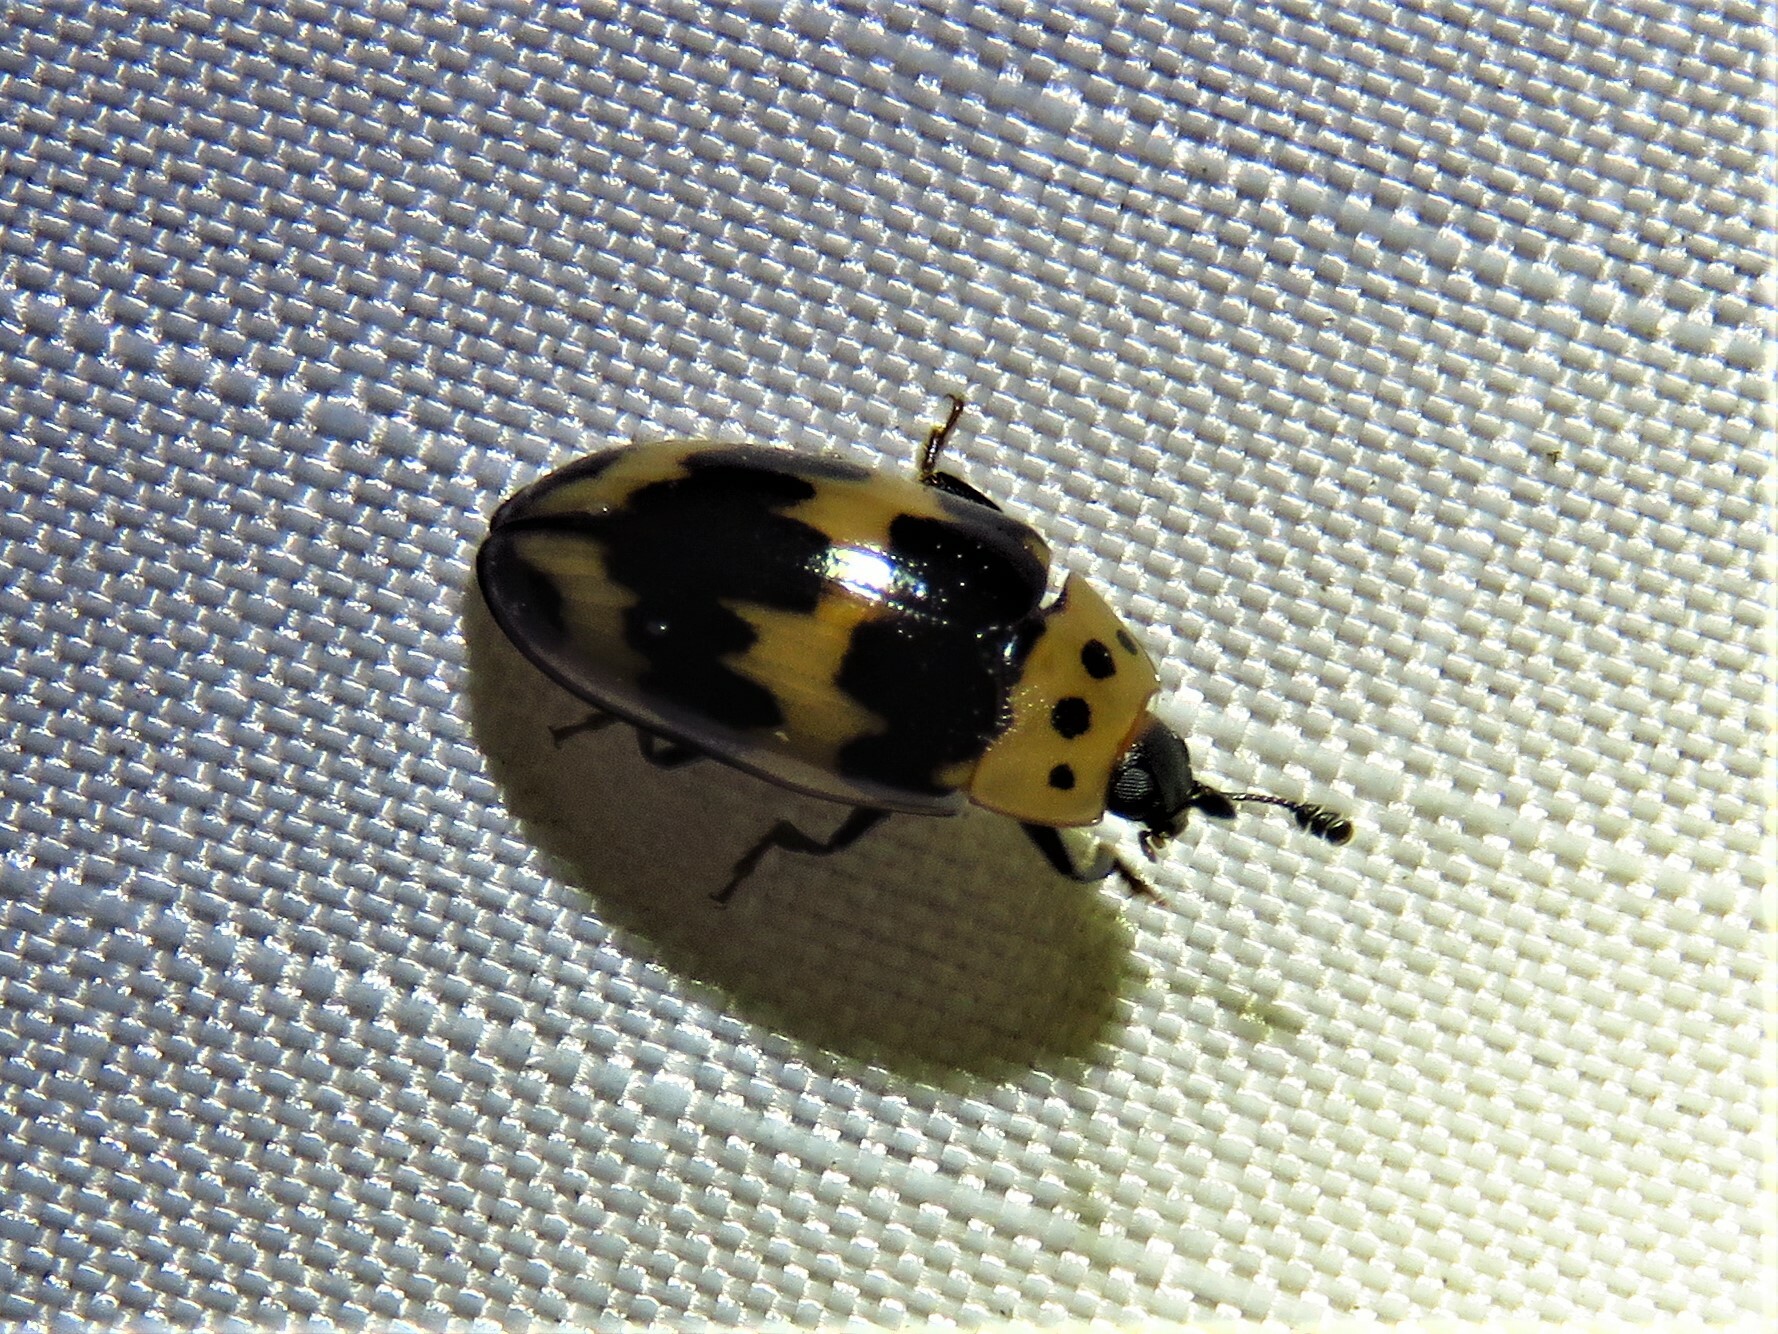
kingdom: Animalia
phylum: Arthropoda
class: Insecta
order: Coleoptera
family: Erotylidae
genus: Ischyrus
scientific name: Ischyrus quadripunctatus
